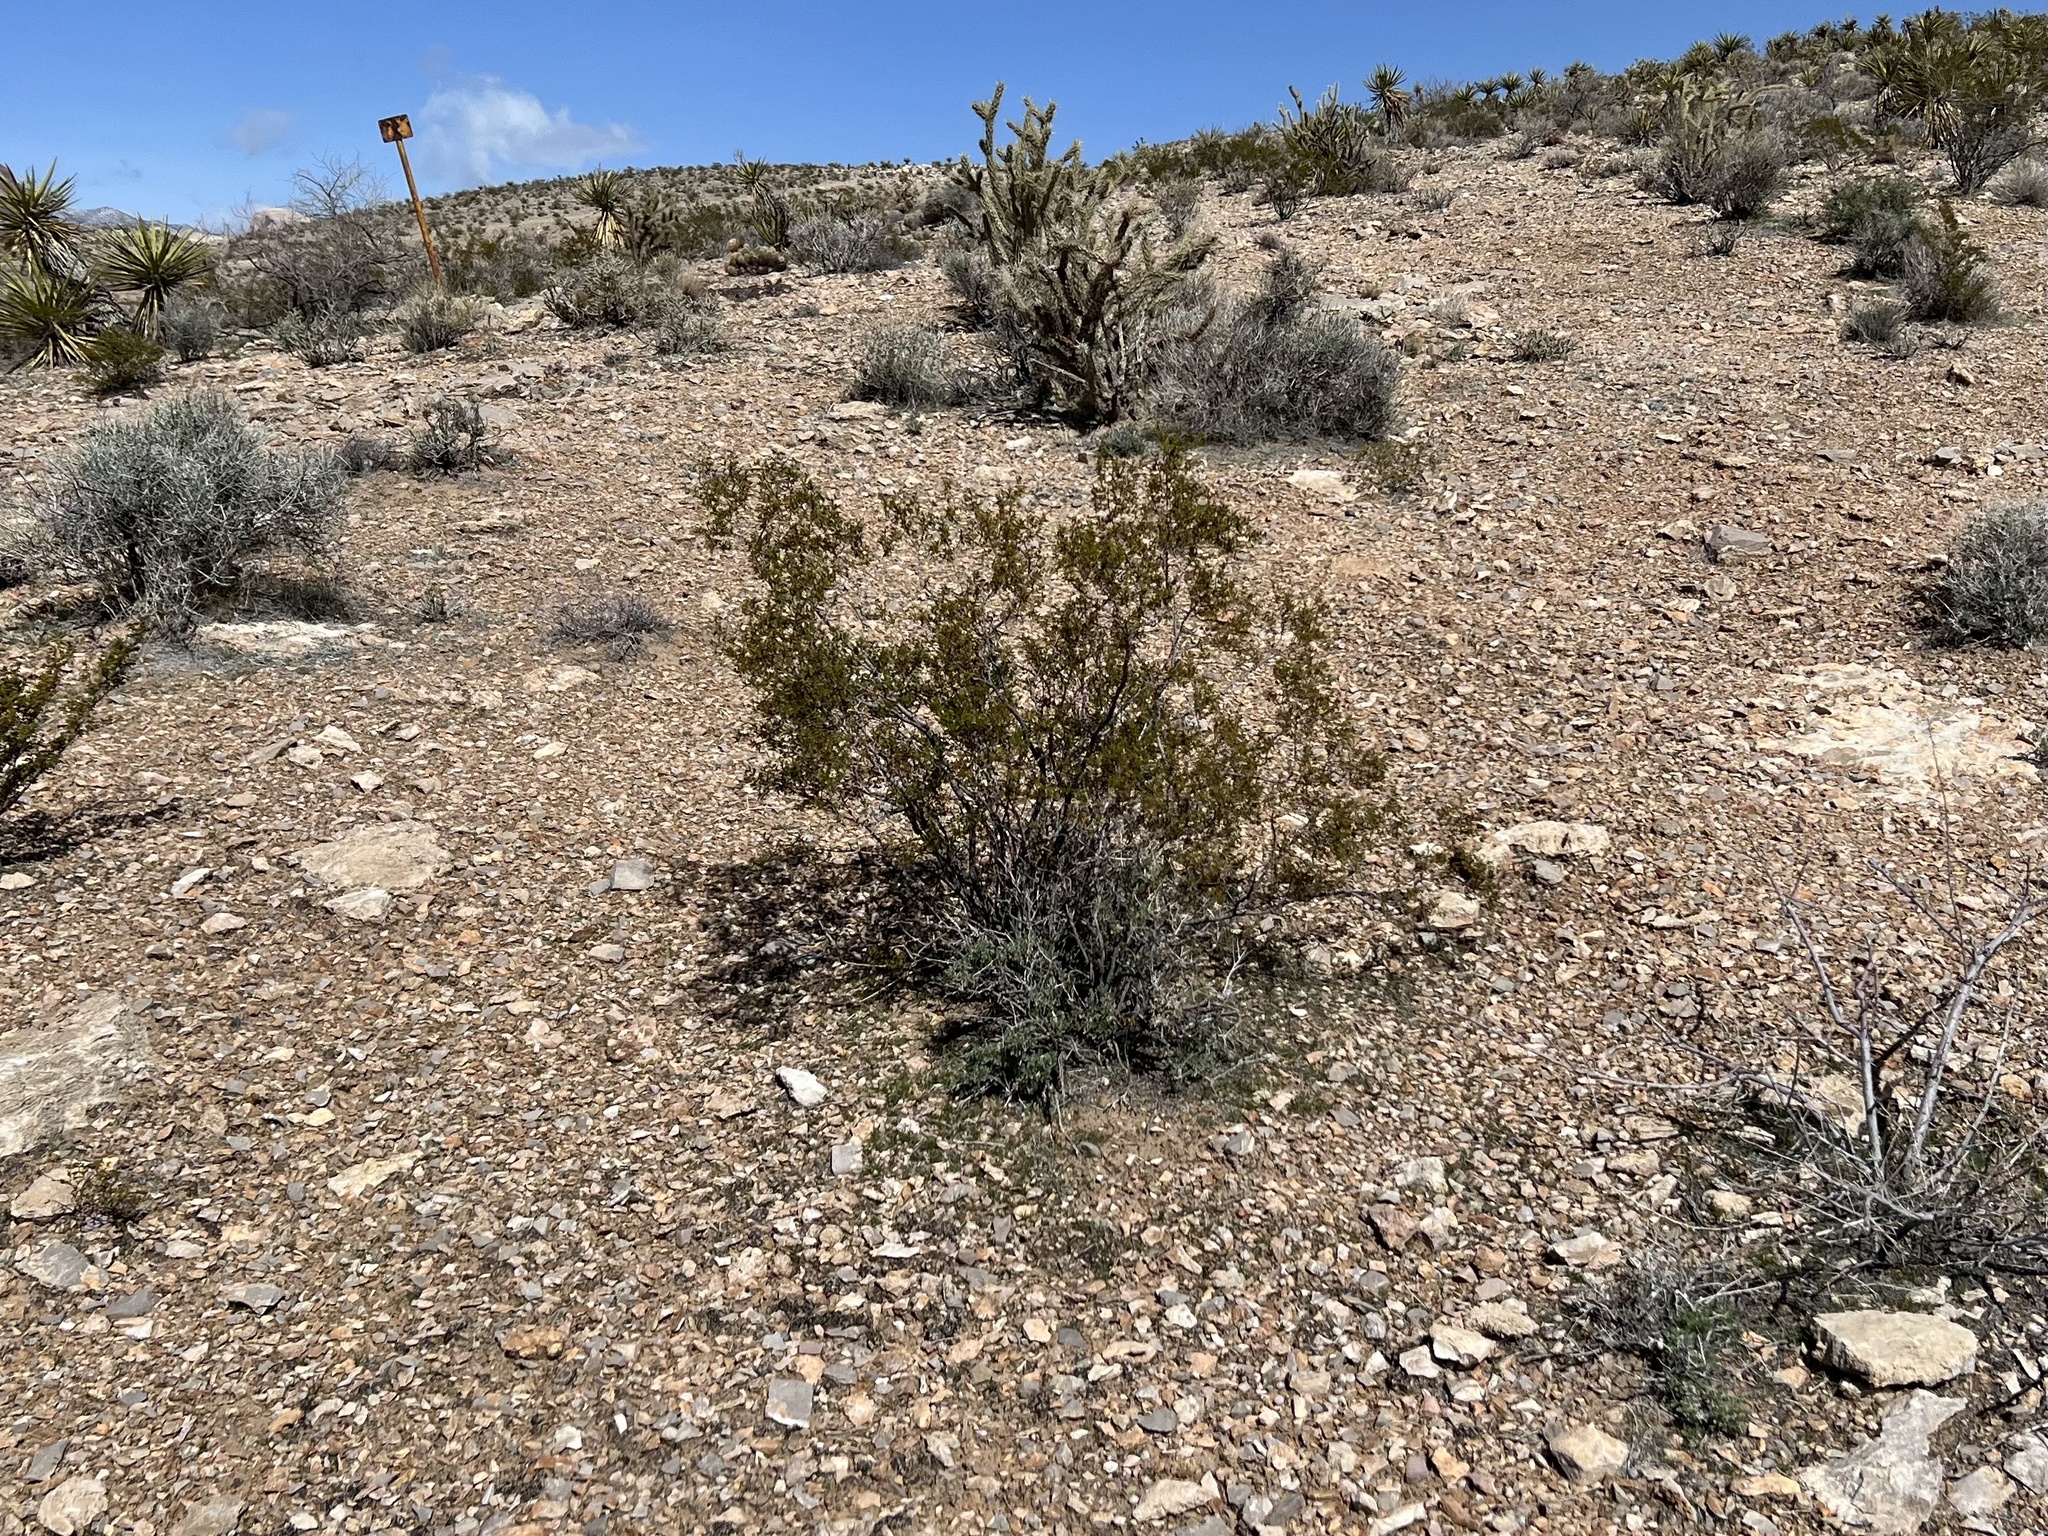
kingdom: Plantae
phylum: Tracheophyta
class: Magnoliopsida
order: Zygophyllales
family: Zygophyllaceae
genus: Larrea
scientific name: Larrea tridentata
